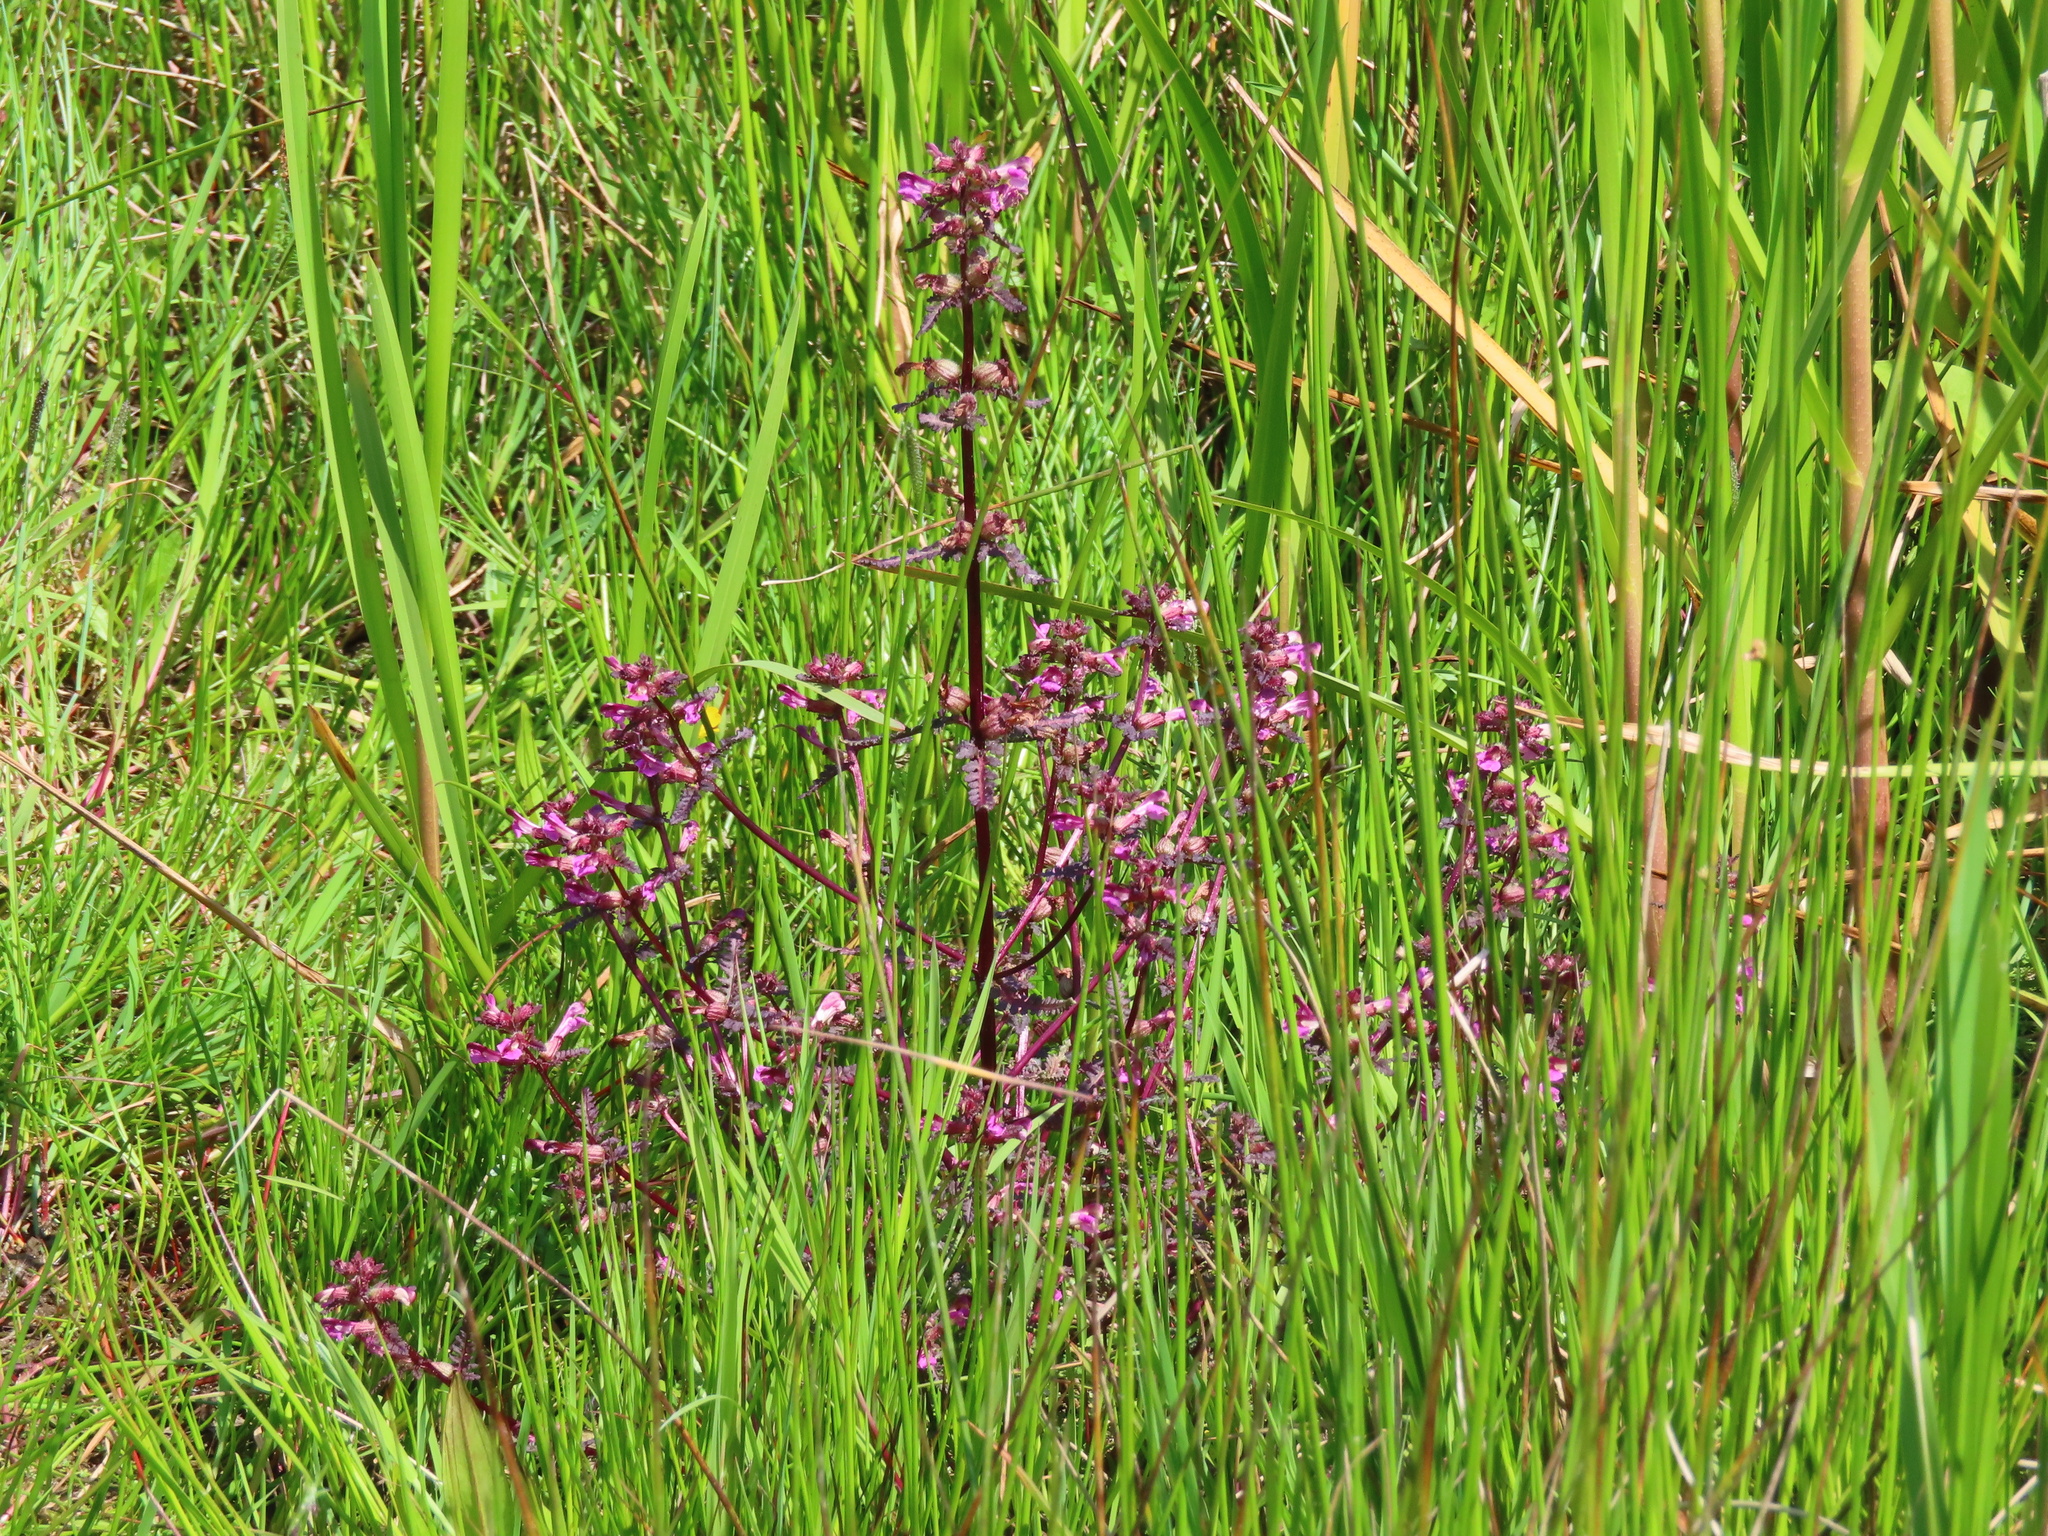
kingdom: Plantae
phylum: Tracheophyta
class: Magnoliopsida
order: Lamiales
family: Orobanchaceae
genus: Pedicularis
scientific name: Pedicularis palustris
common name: Marsh lousewort
